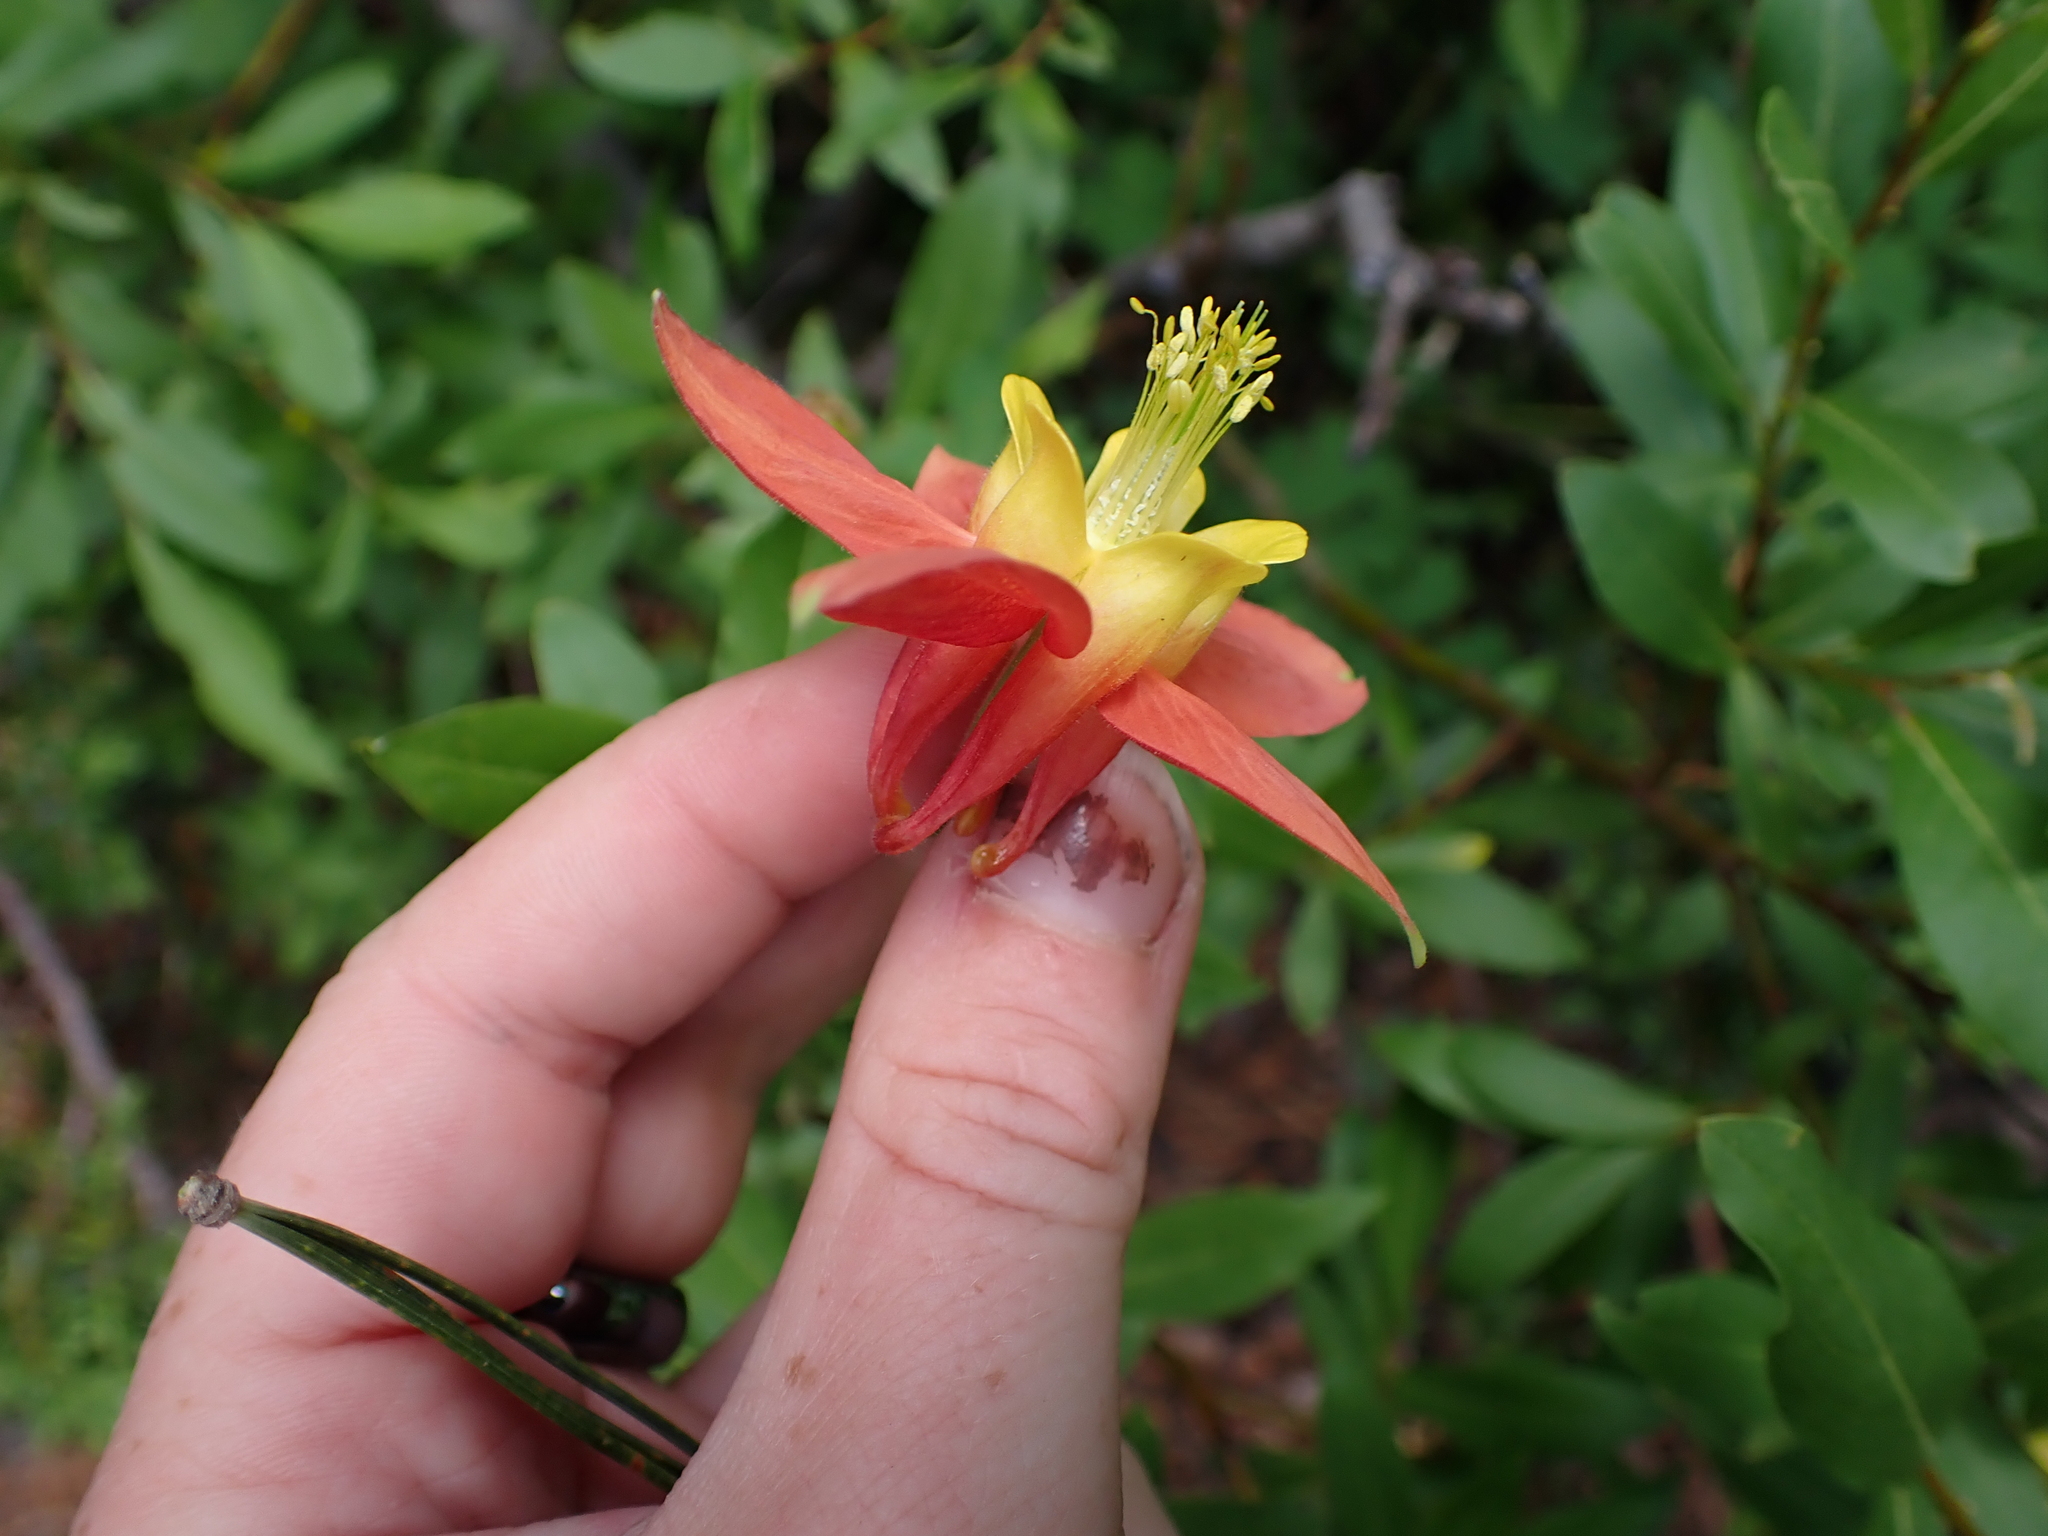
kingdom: Plantae
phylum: Tracheophyta
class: Magnoliopsida
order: Ranunculales
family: Ranunculaceae
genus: Aquilegia
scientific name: Aquilegia formosa
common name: Sitka columbine
